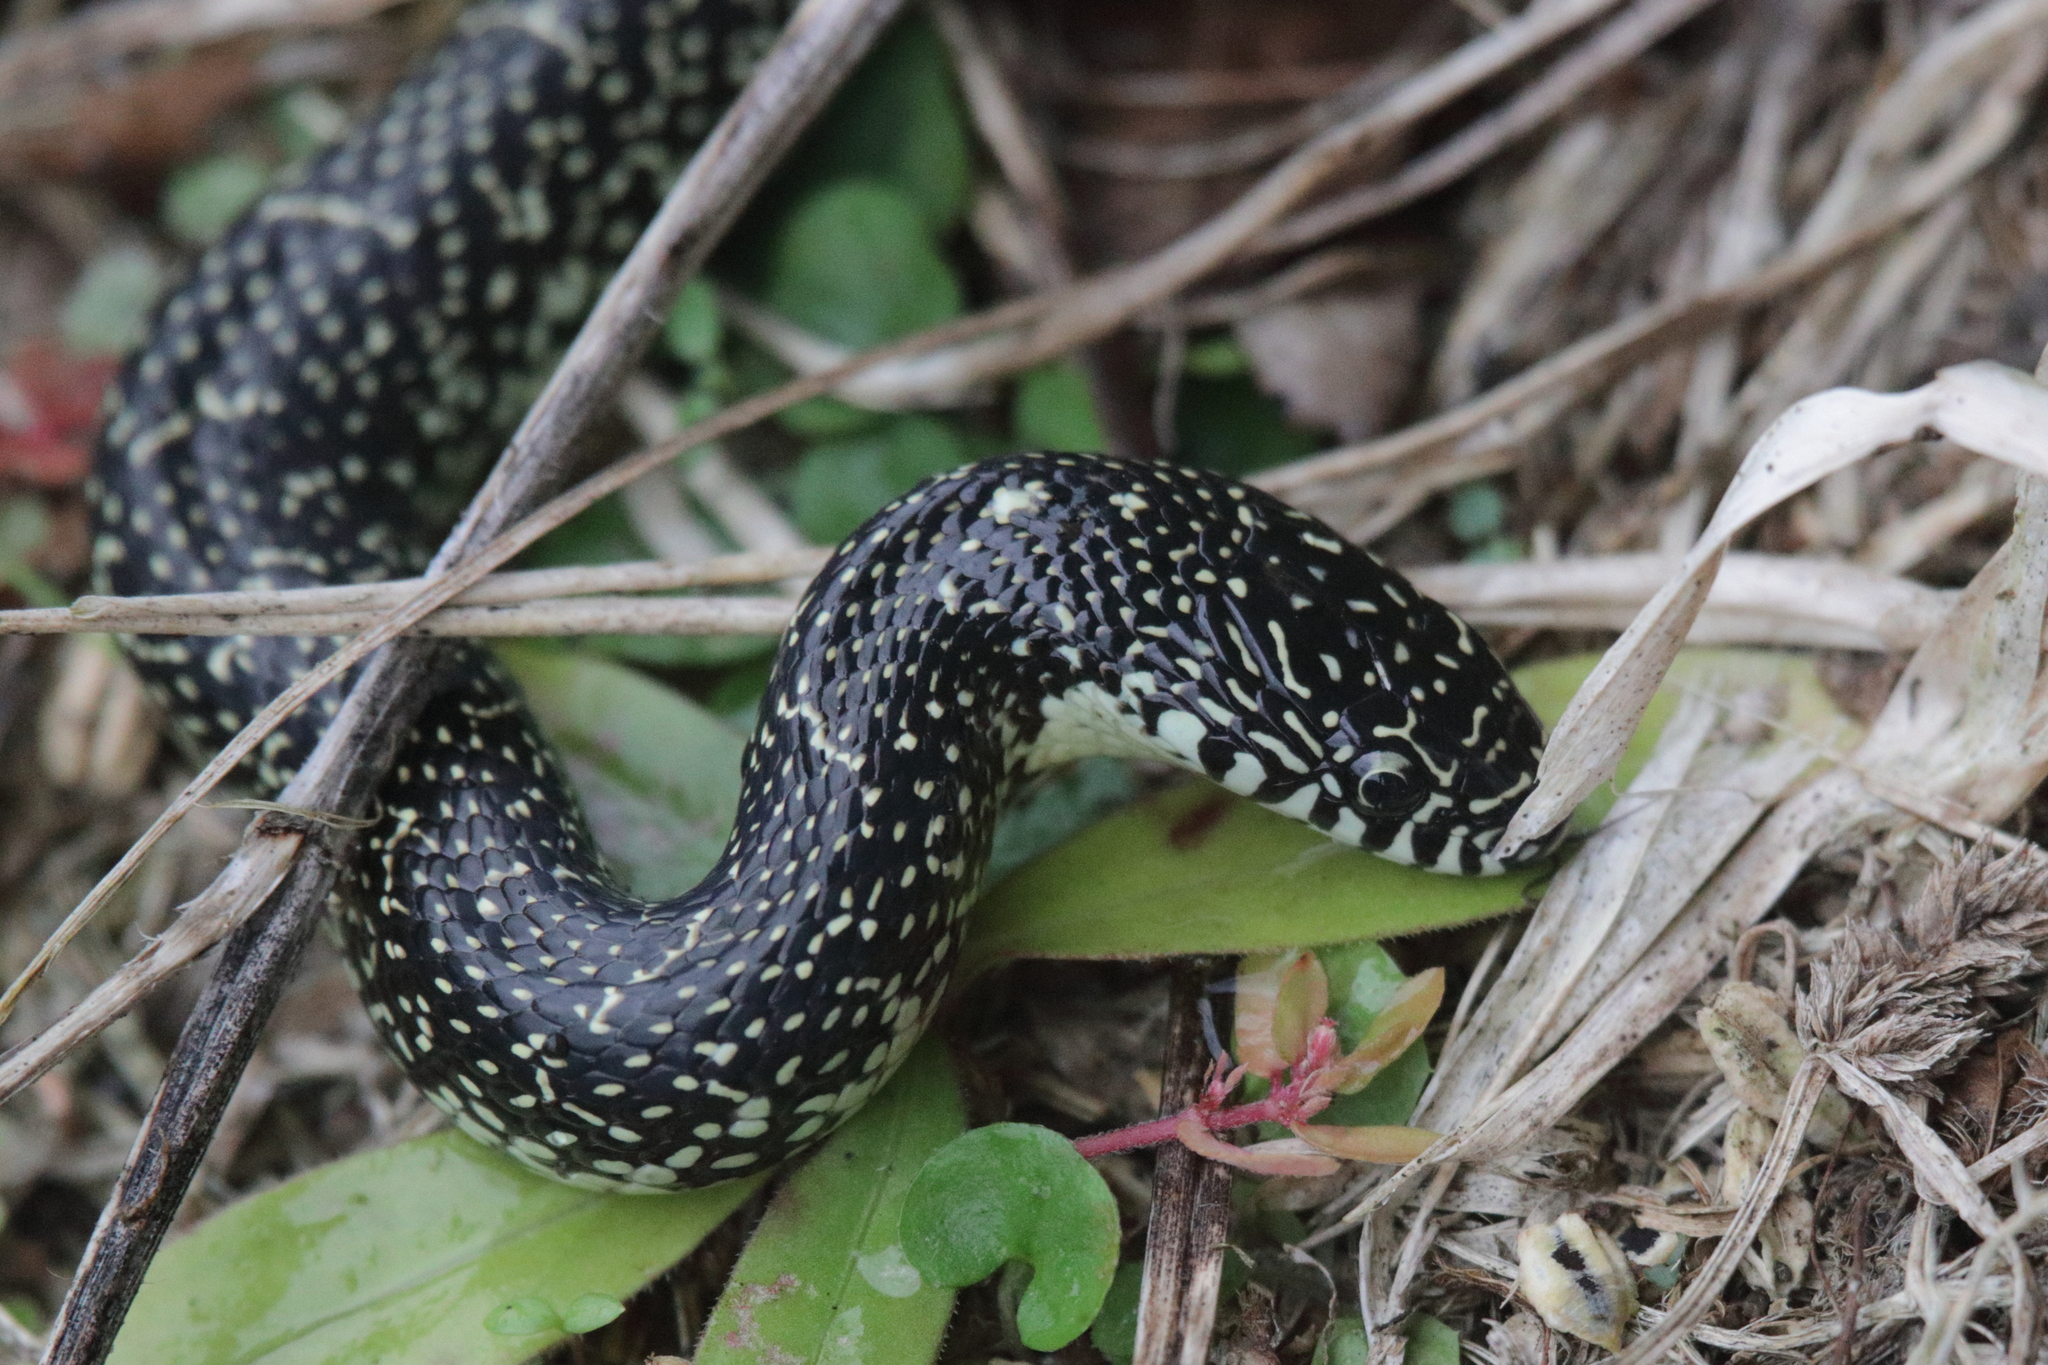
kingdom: Animalia
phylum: Chordata
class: Squamata
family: Colubridae
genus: Lampropeltis
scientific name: Lampropeltis holbrooki
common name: Speckled kingsnake
